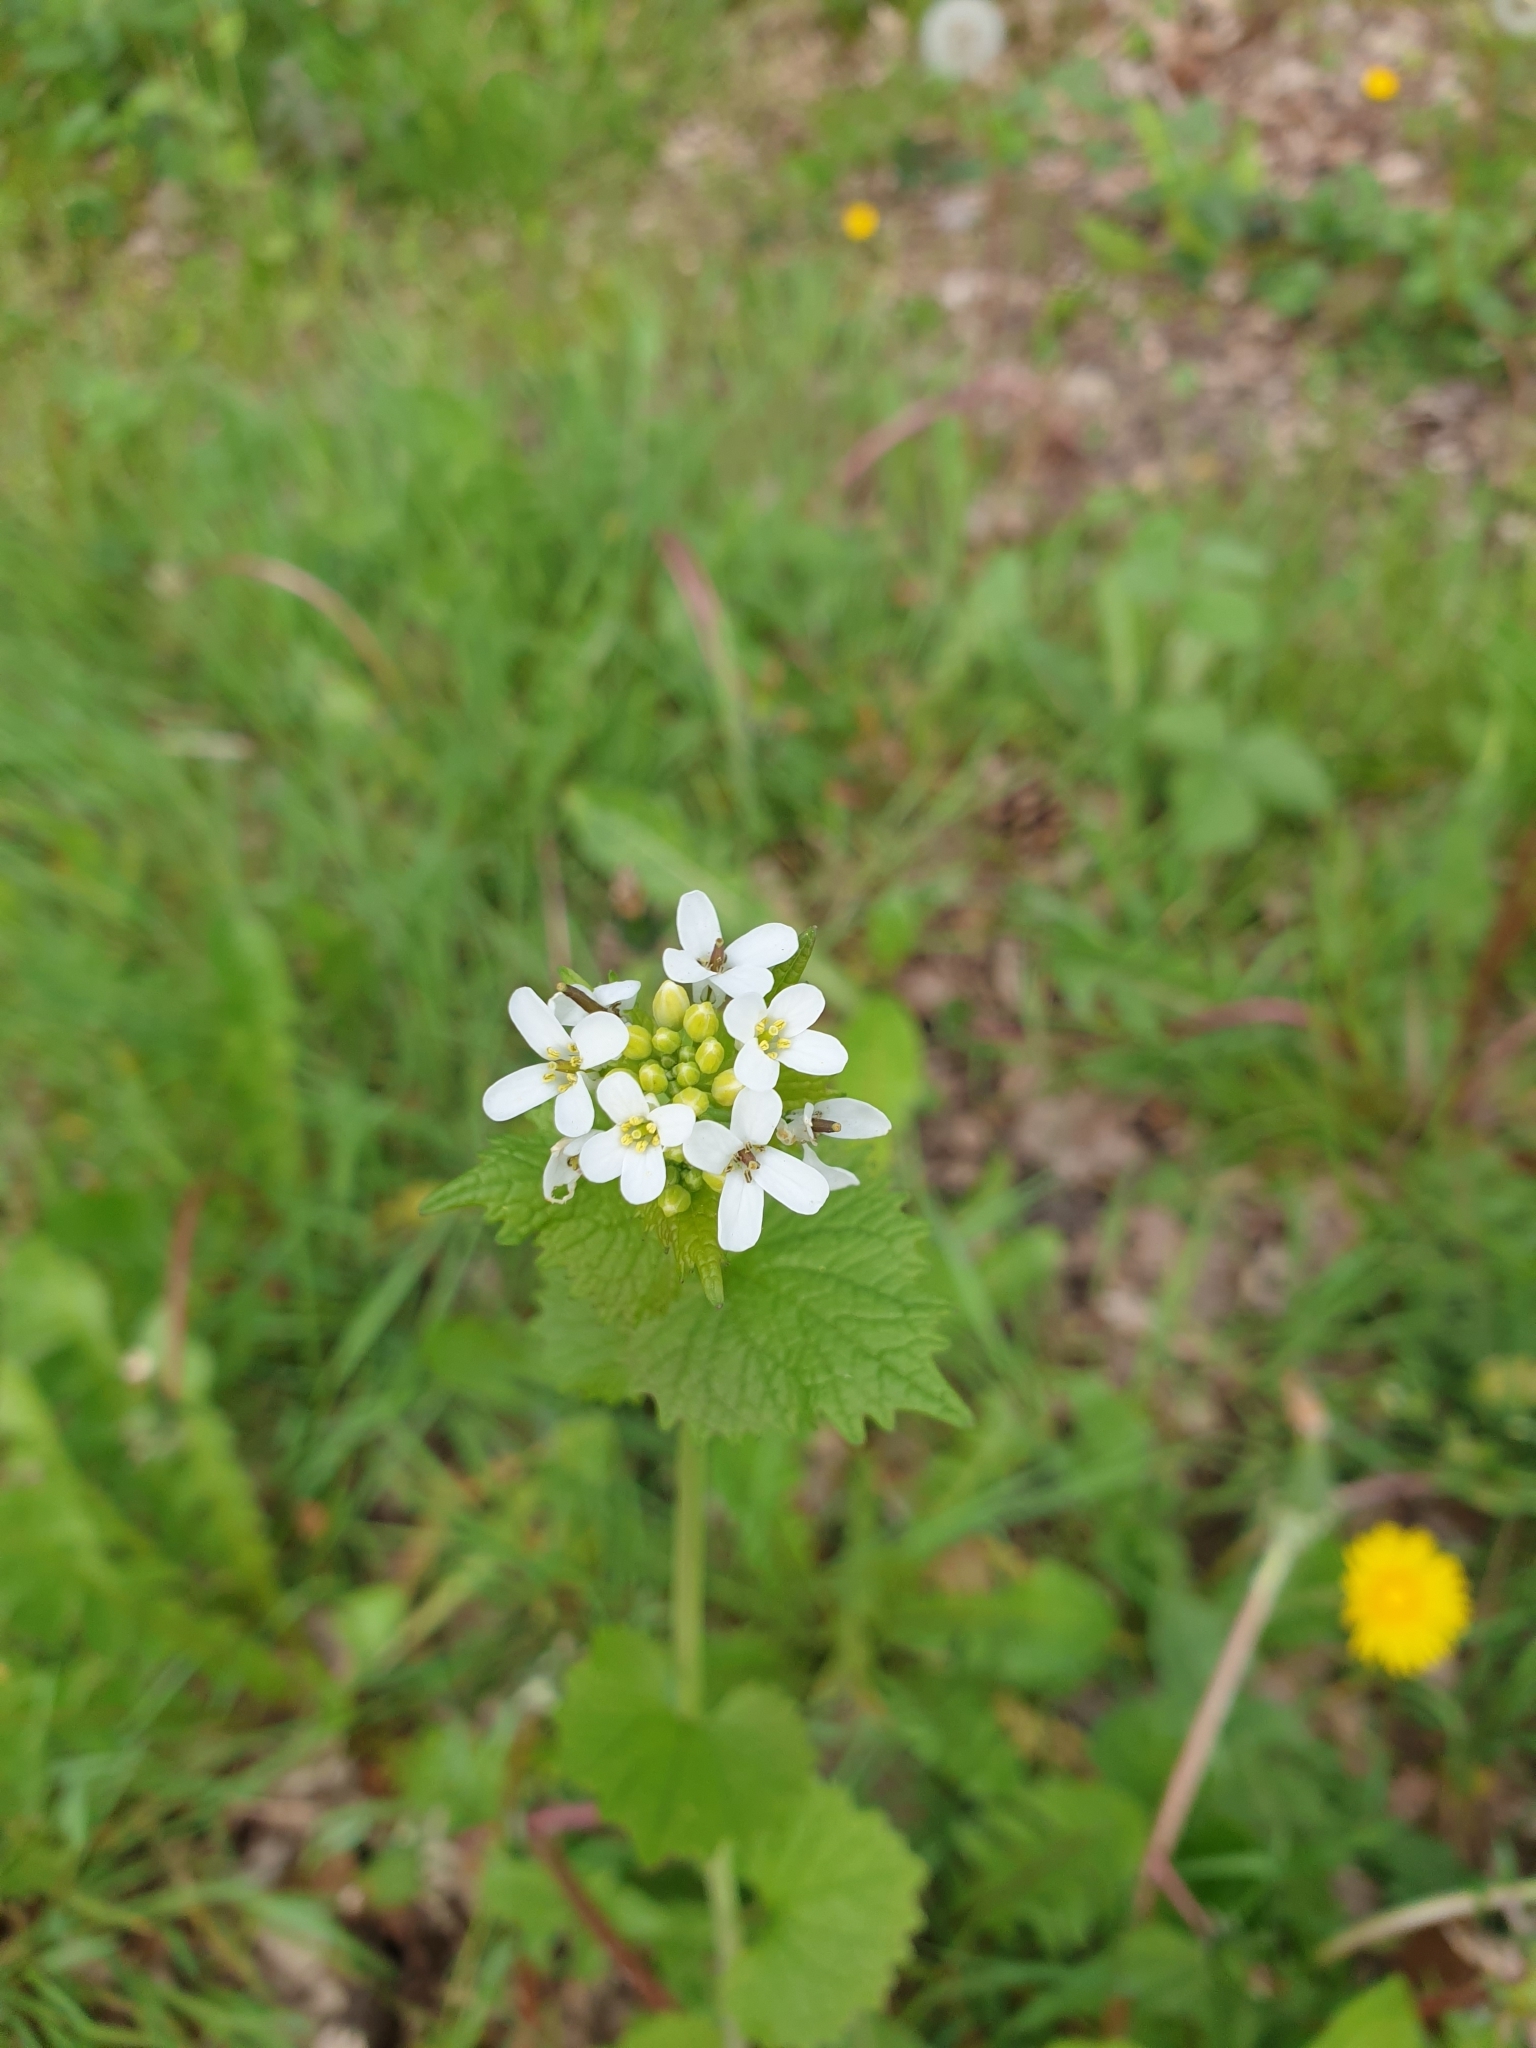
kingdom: Plantae
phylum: Tracheophyta
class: Magnoliopsida
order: Brassicales
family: Brassicaceae
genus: Alliaria
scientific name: Alliaria petiolata
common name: Garlic mustard
